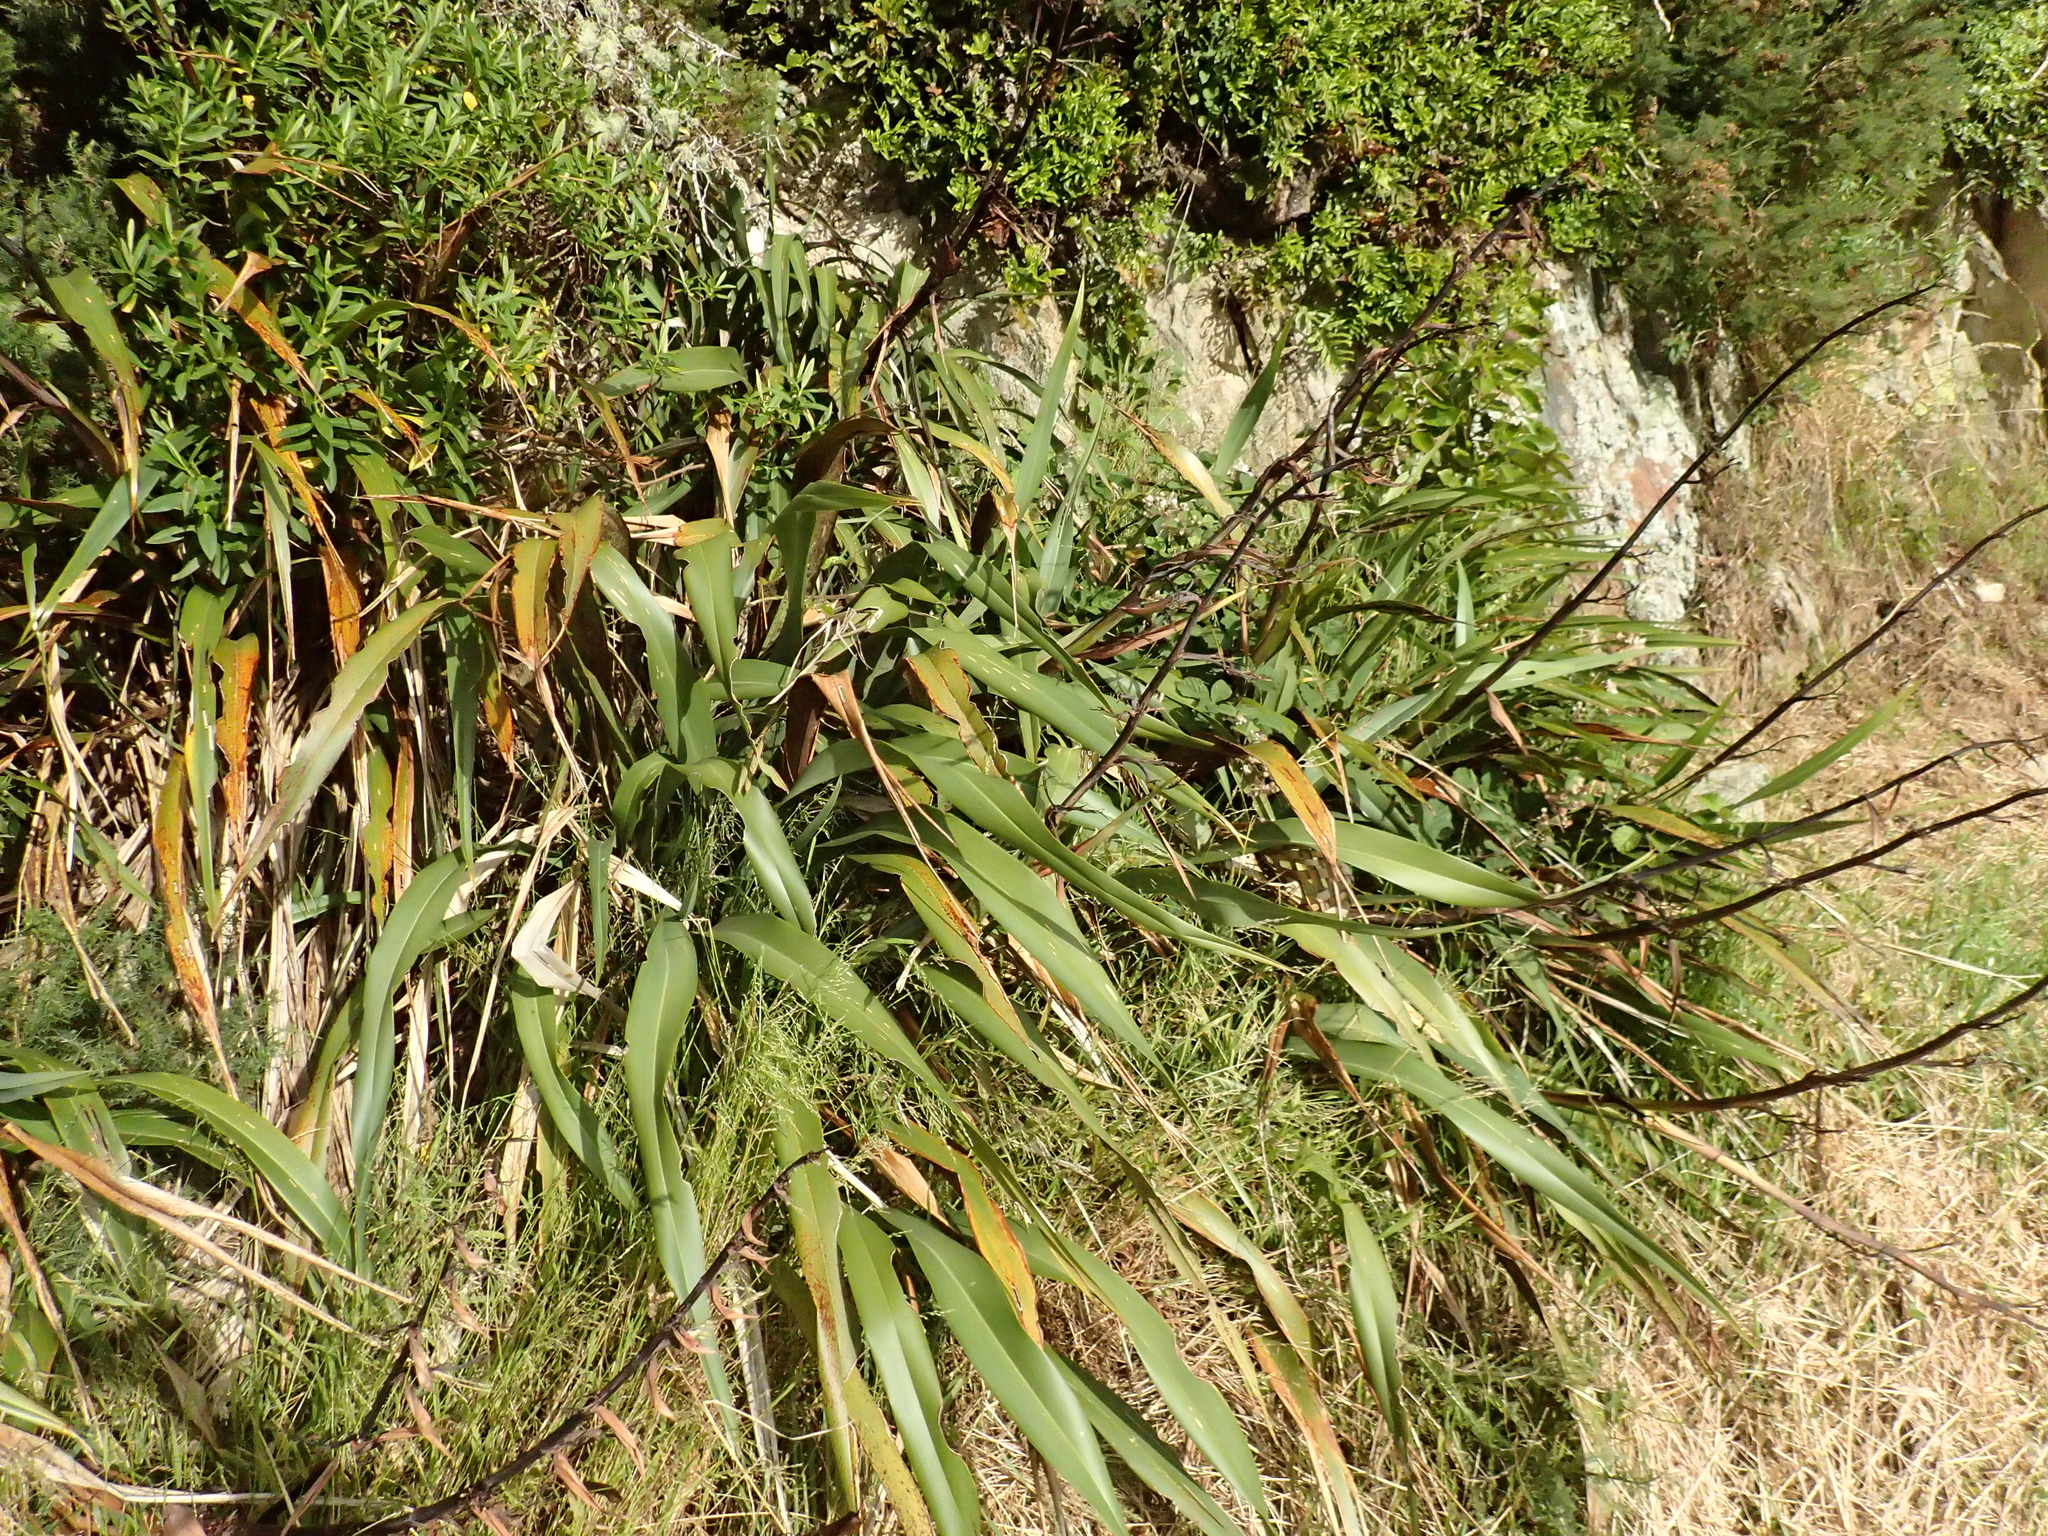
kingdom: Plantae
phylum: Tracheophyta
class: Liliopsida
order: Asparagales
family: Asphodelaceae
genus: Phormium
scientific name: Phormium colensoi
